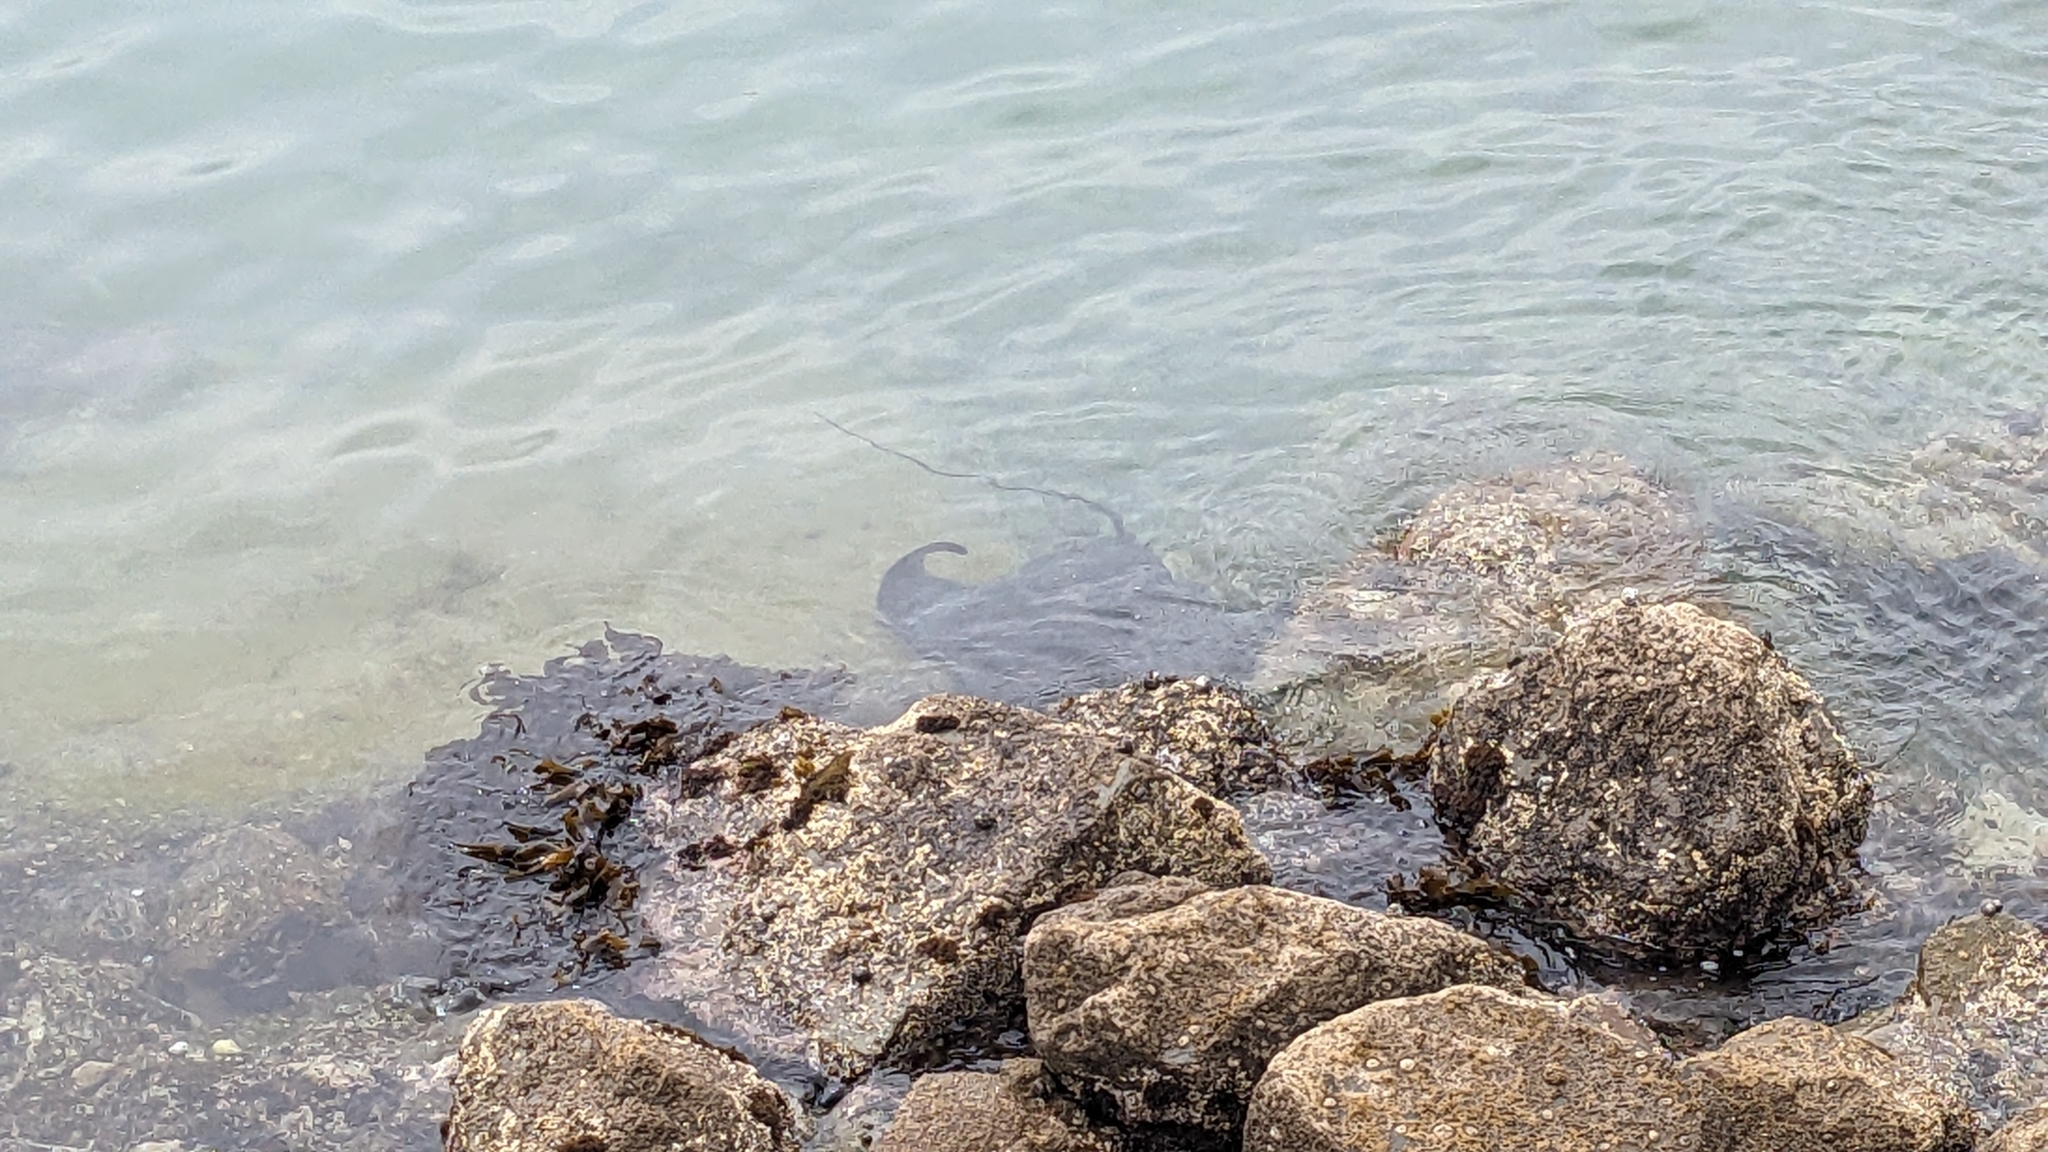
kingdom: Animalia
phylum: Chordata
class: Elasmobranchii
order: Myliobatiformes
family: Myliobatidae
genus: Myliobatis
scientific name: Myliobatis tenuicaudatus
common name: Eagle ray
